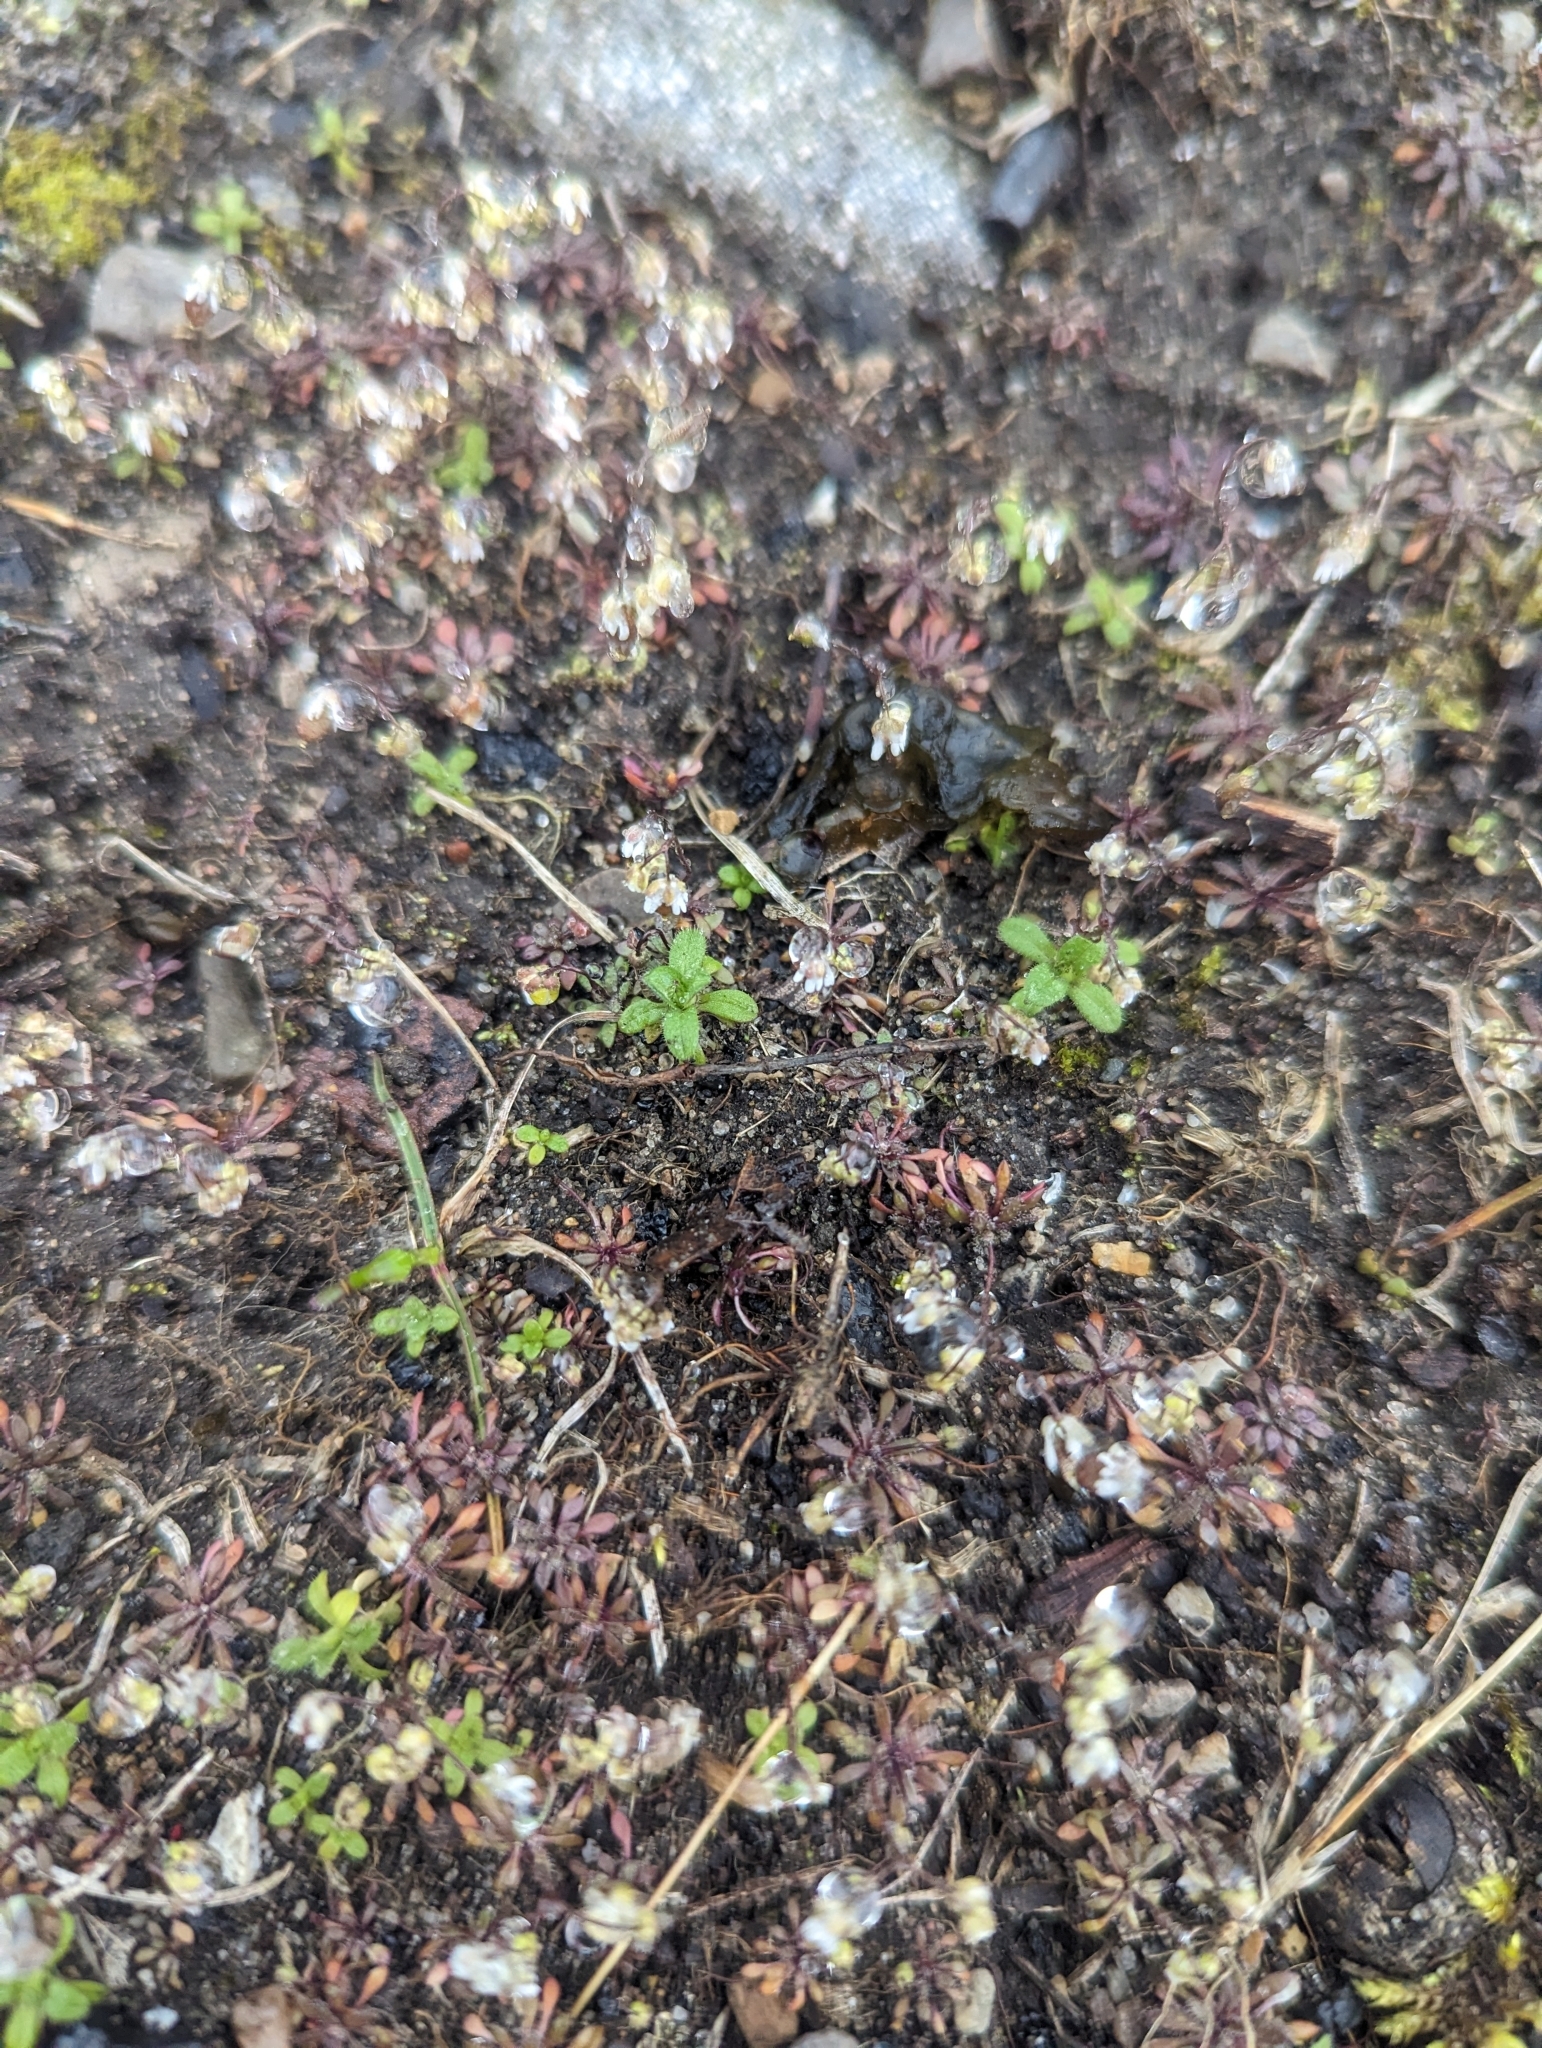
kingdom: Plantae
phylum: Tracheophyta
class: Magnoliopsida
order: Brassicales
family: Brassicaceae
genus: Draba
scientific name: Draba verna
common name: Spring draba
